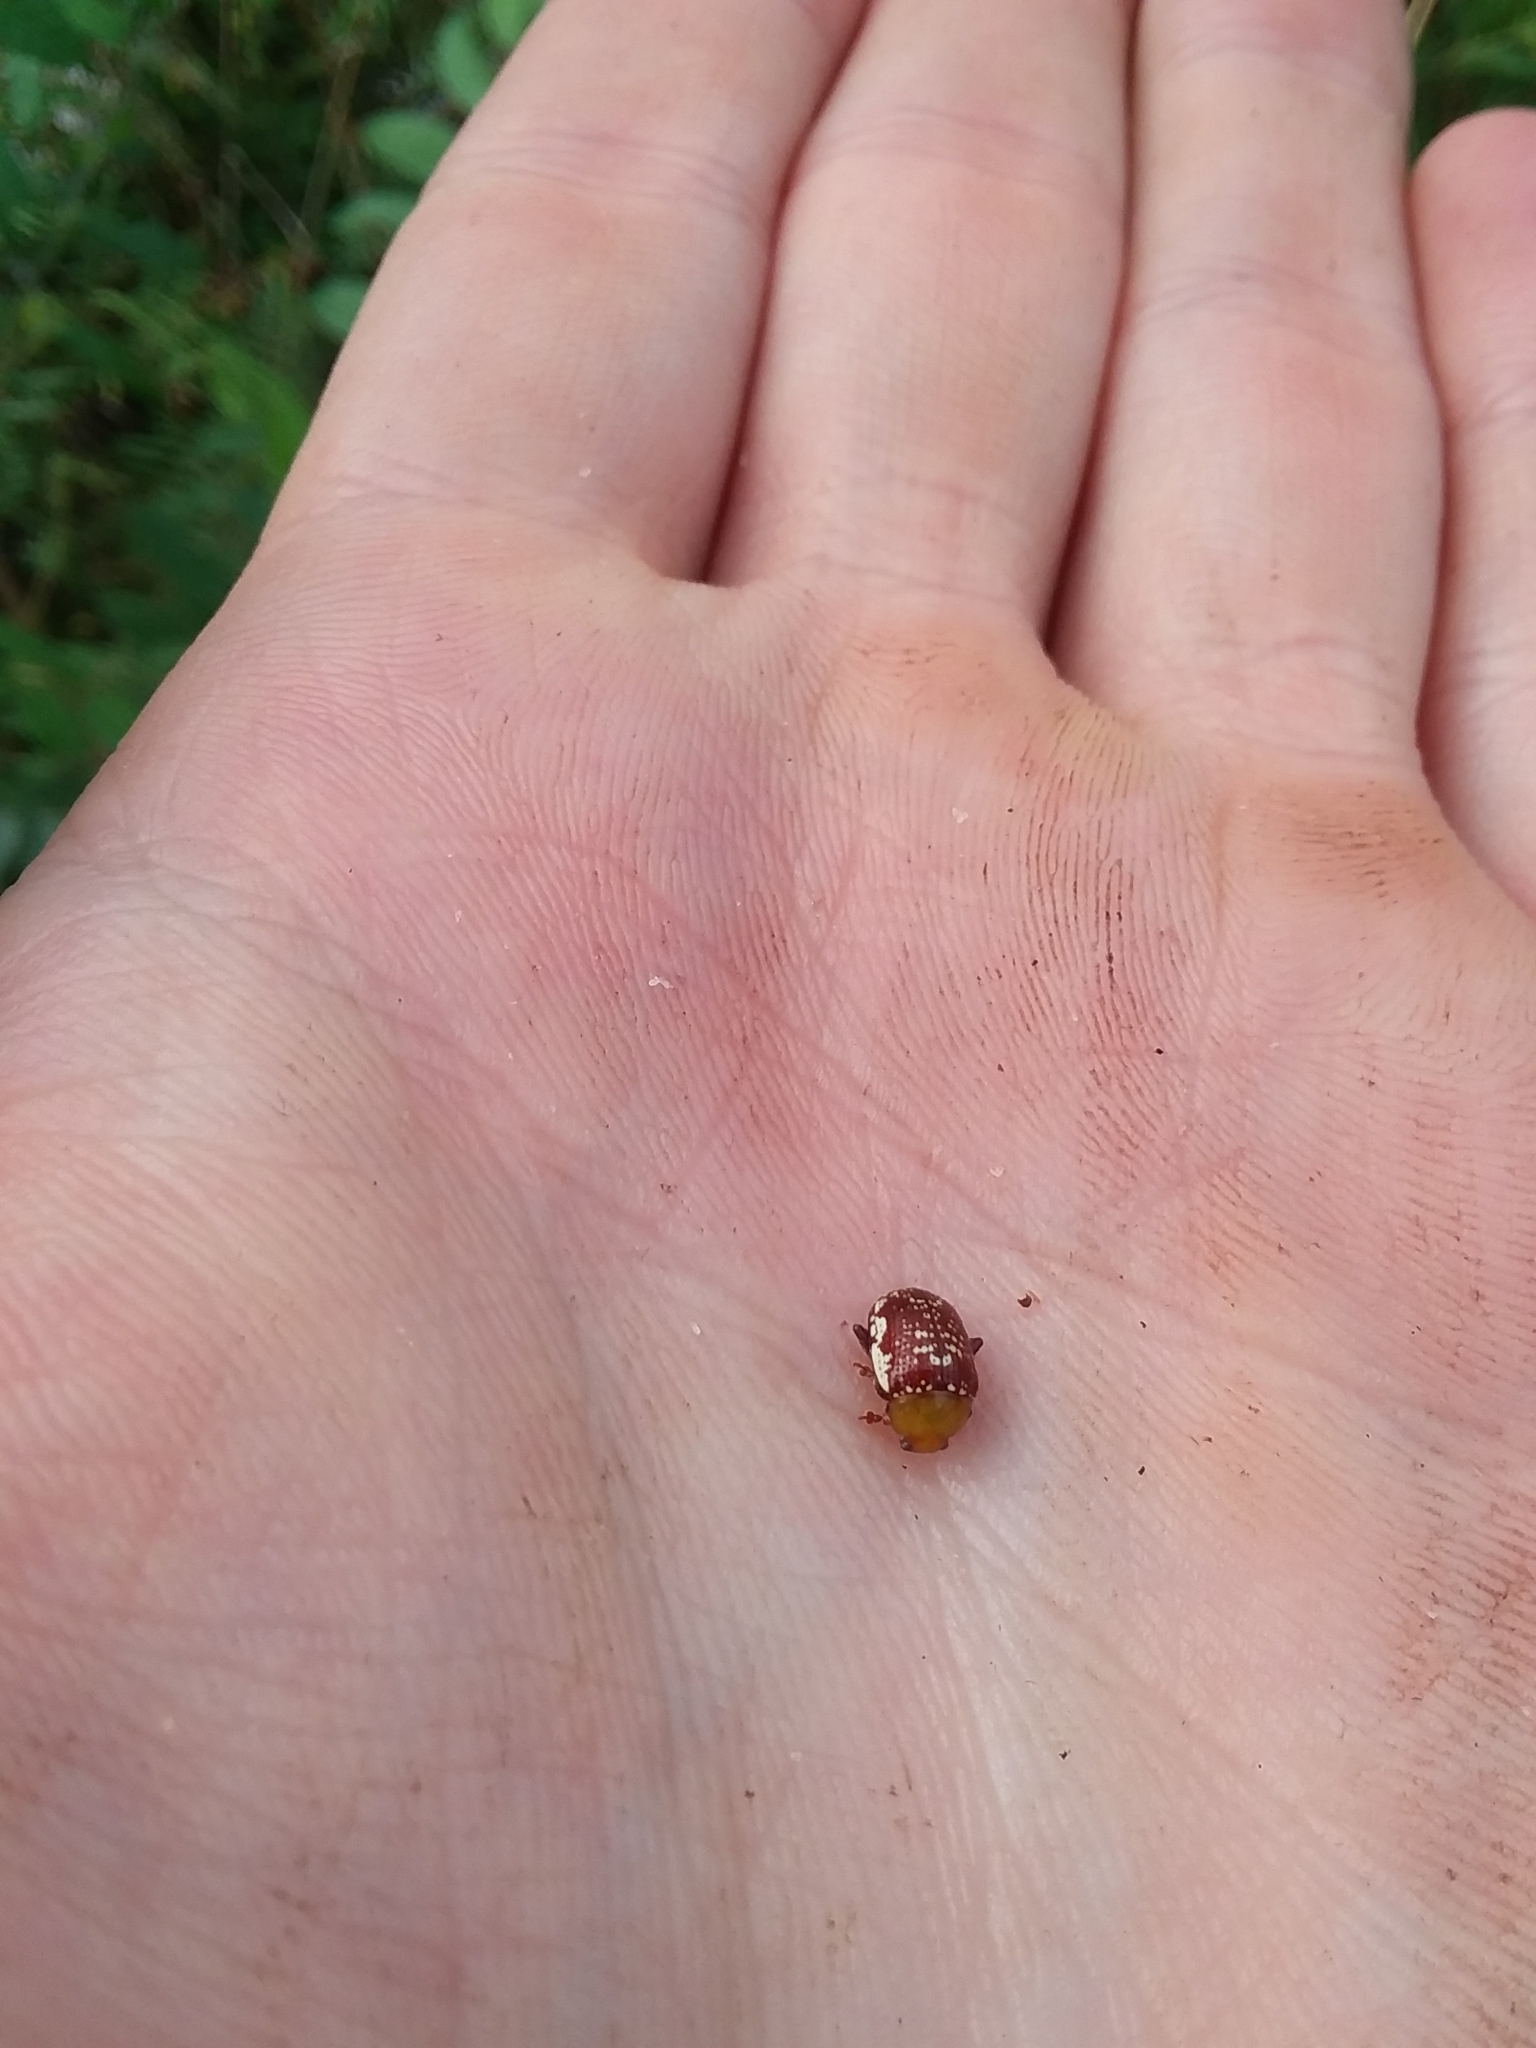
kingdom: Animalia
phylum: Arthropoda
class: Insecta
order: Coleoptera
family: Chrysomelidae
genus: Blepharida
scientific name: Blepharida rhois
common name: Sumac flea beetle
